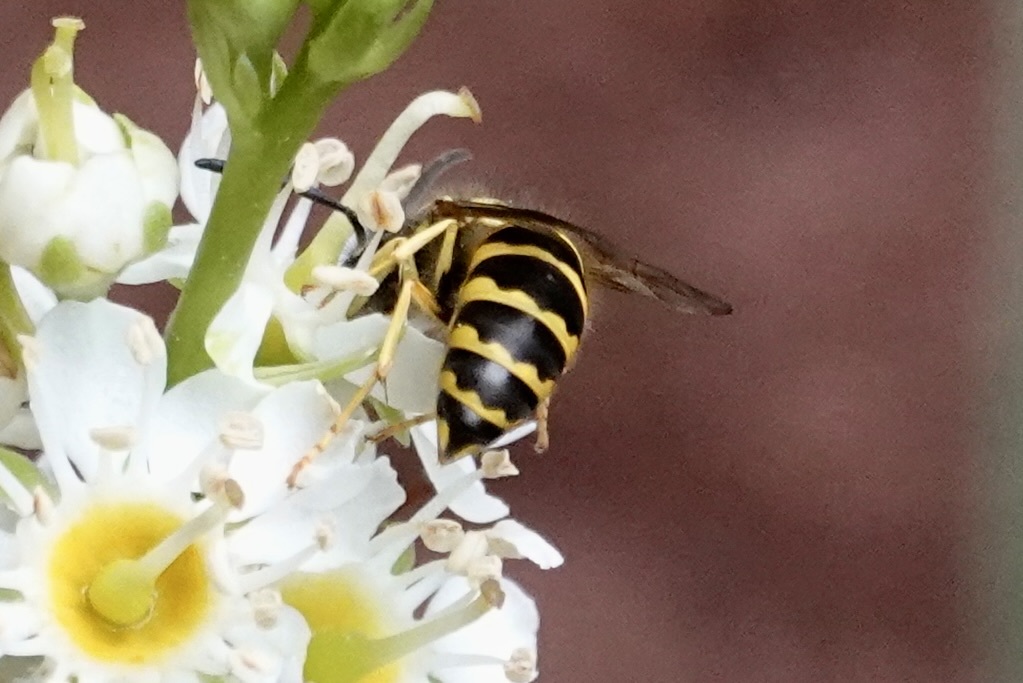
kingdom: Animalia
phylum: Arthropoda
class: Insecta
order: Hymenoptera
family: Vespidae
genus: Vespula
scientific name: Vespula maculifrons
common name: Eastern yellowjacket
